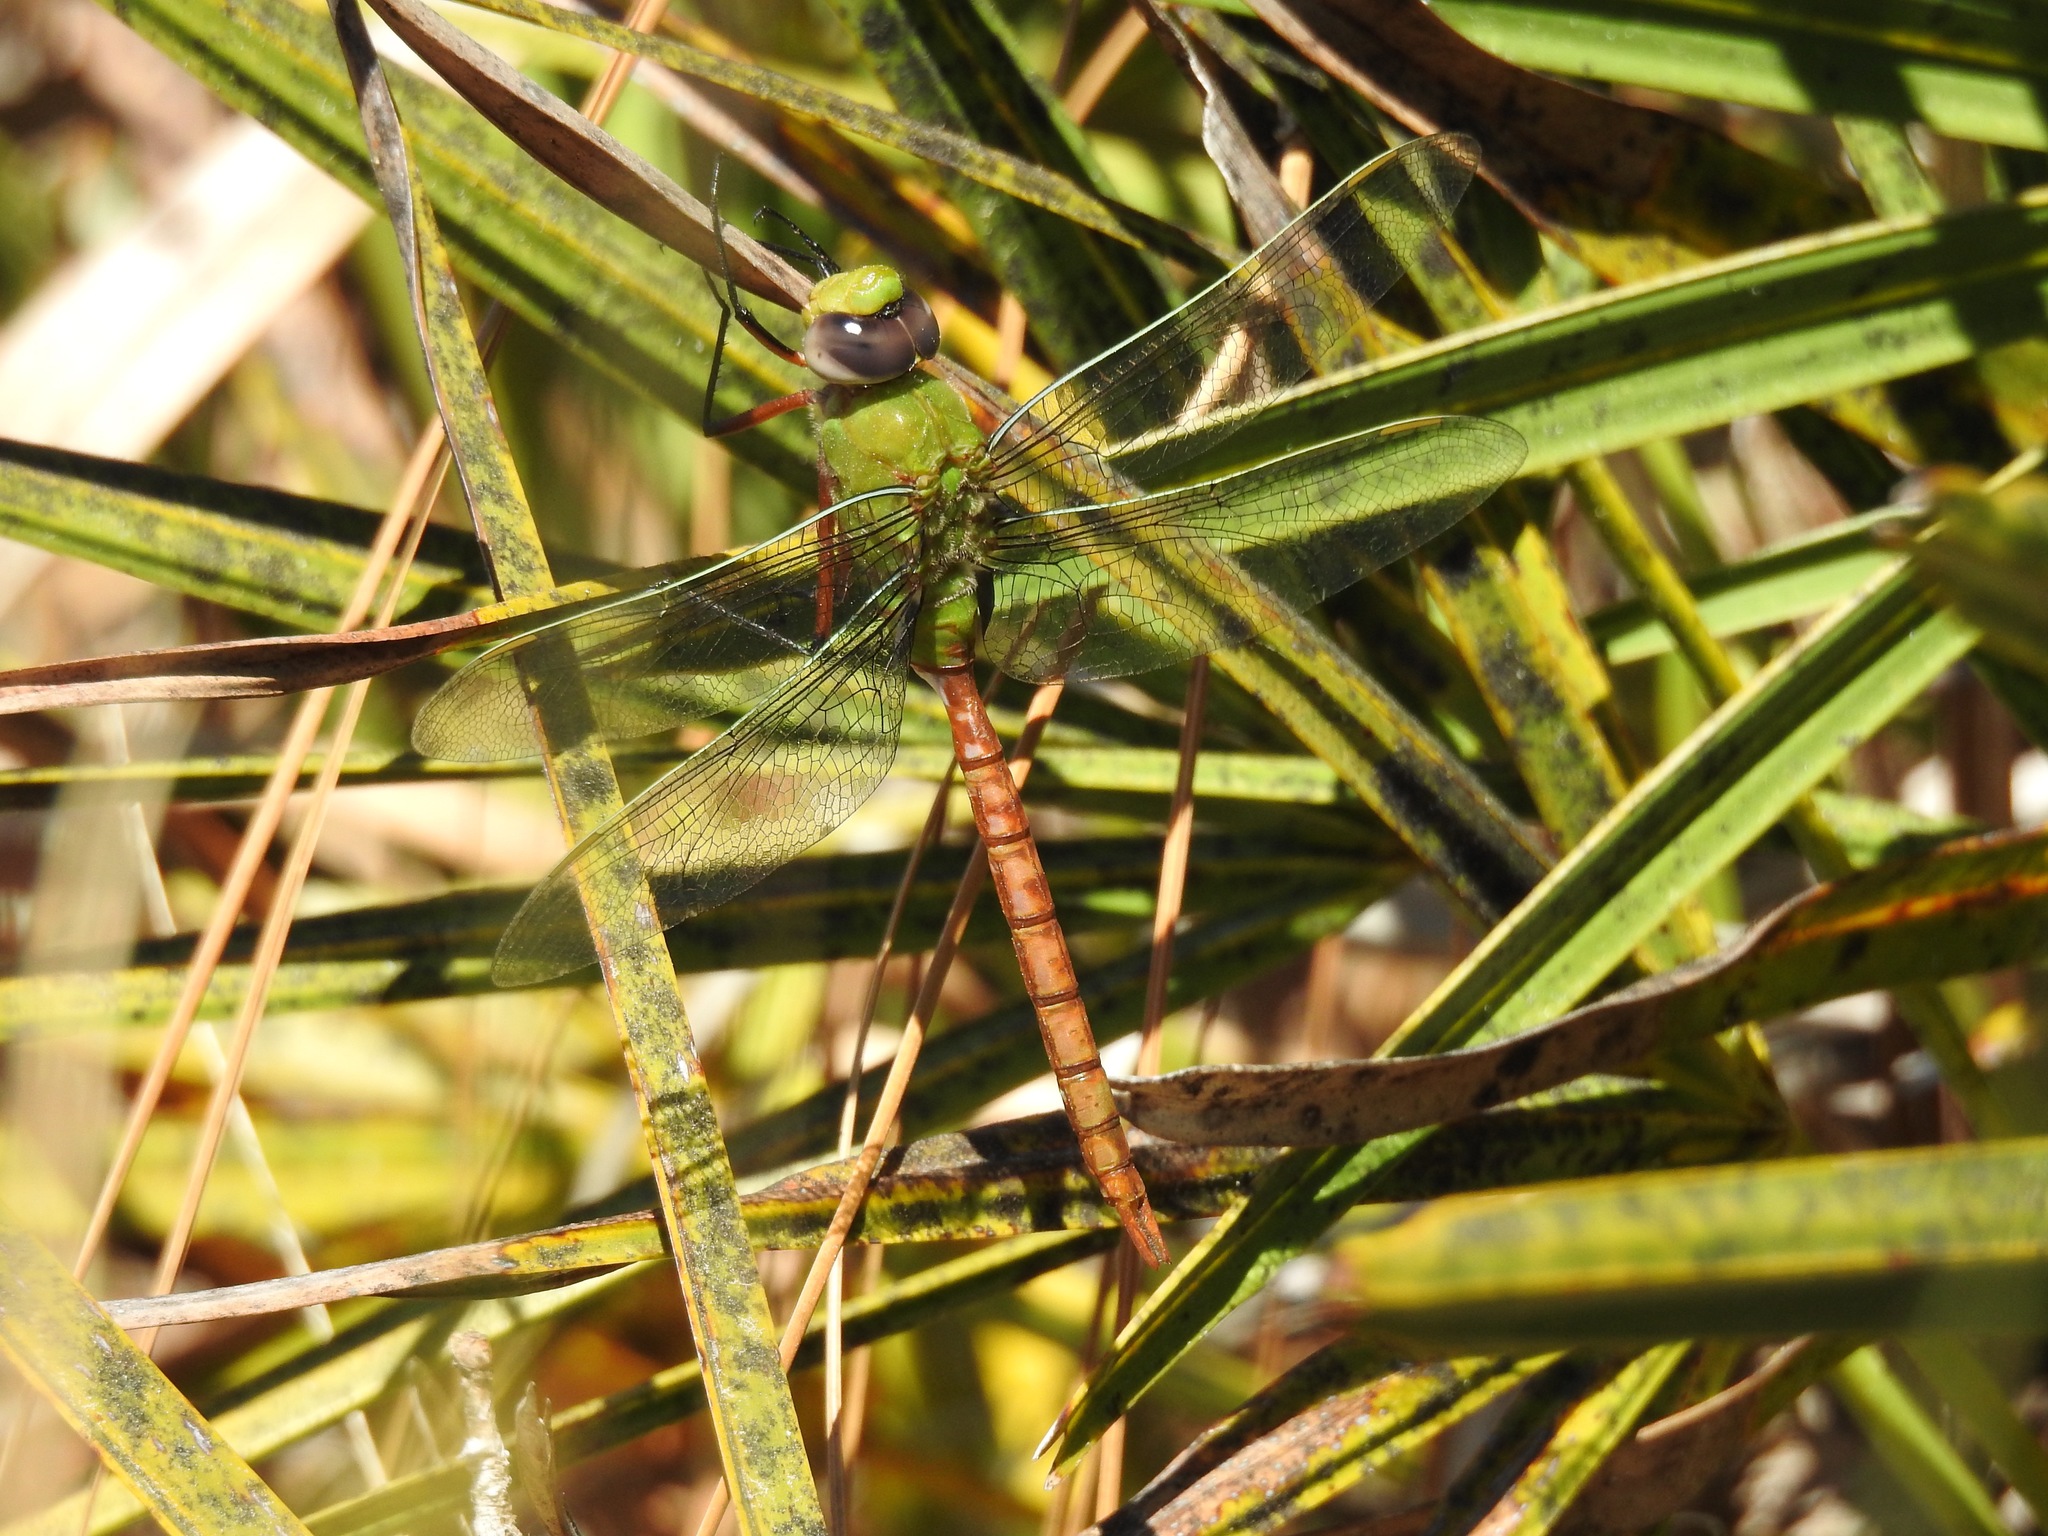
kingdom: Animalia
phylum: Arthropoda
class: Insecta
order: Odonata
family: Aeshnidae
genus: Anax
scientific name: Anax longipes
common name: Comet darner
